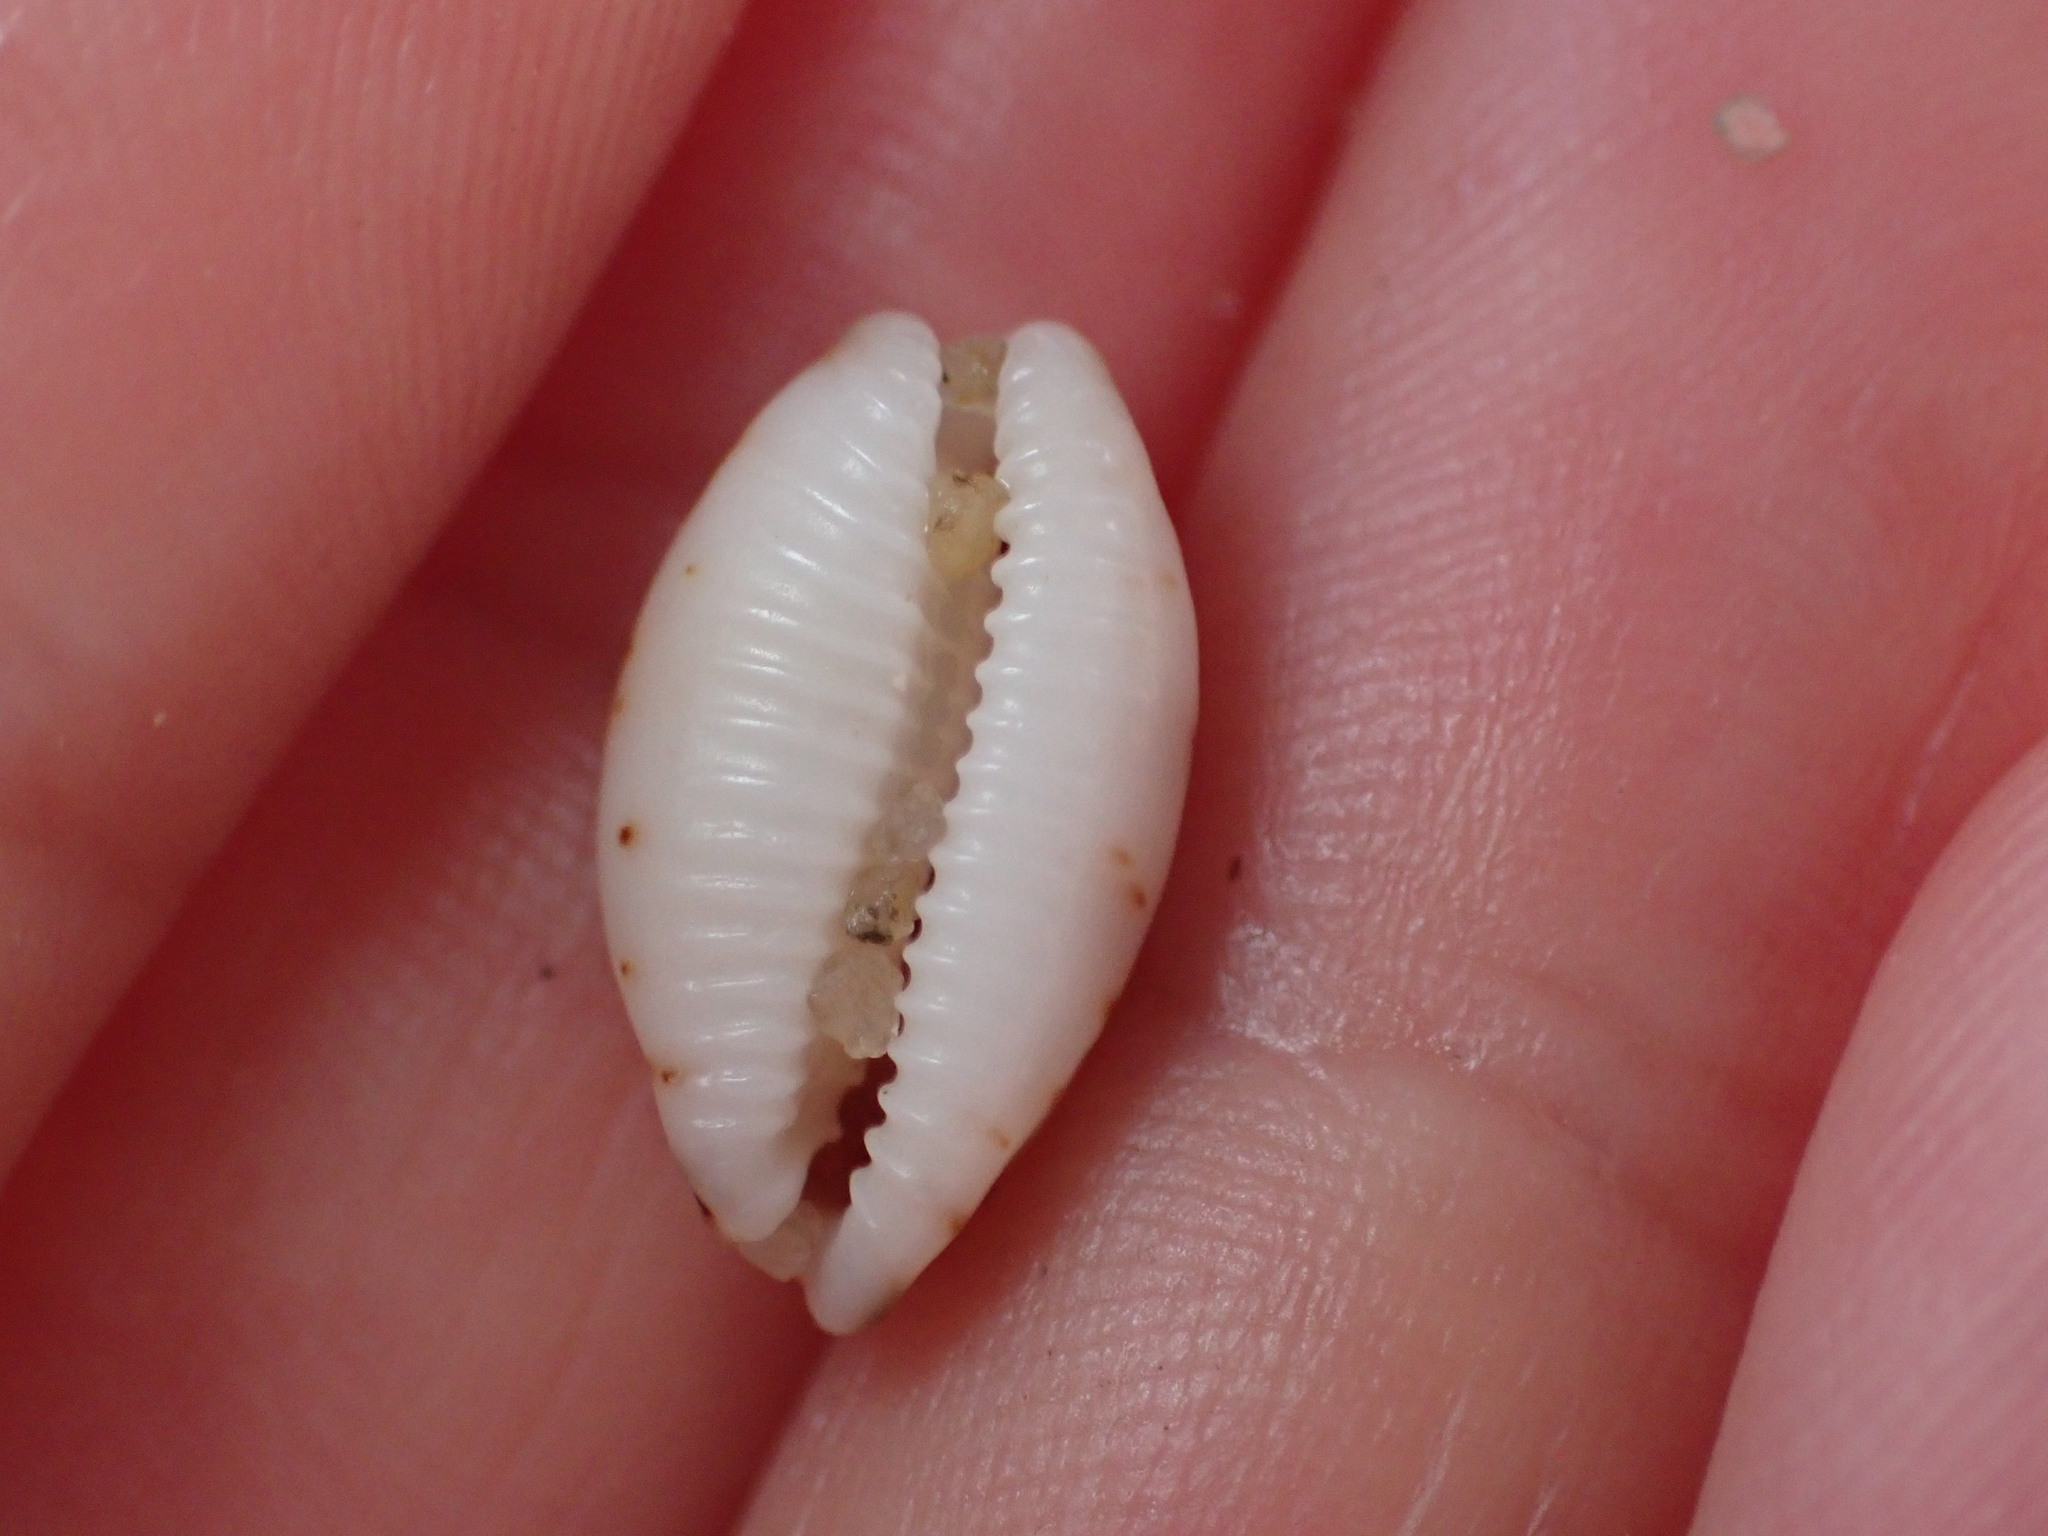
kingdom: Animalia
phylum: Mollusca
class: Gastropoda
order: Littorinimorpha
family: Cypraeidae
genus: Bistolida
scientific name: Bistolida hirundo
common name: Cowrie
